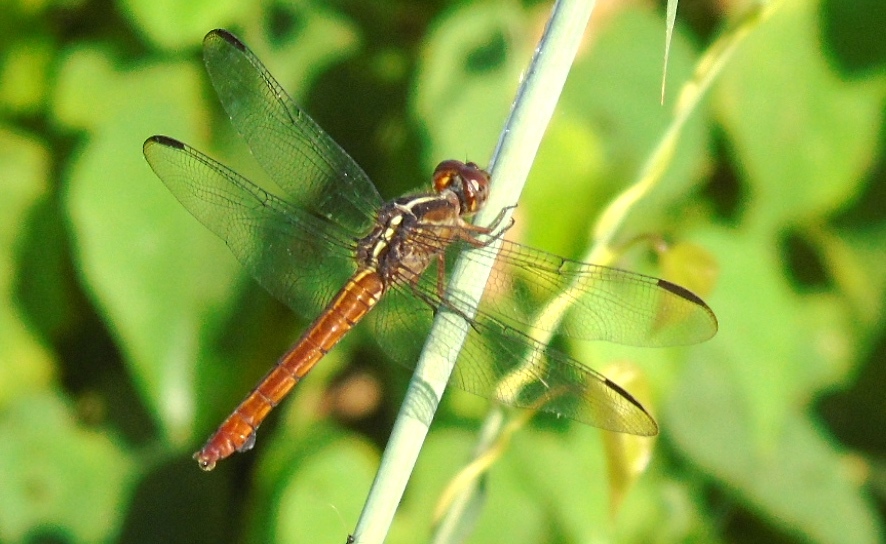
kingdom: Animalia
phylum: Arthropoda
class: Insecta
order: Odonata
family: Libellulidae
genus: Orthemis
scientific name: Orthemis discolor
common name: Carmine skimmer
